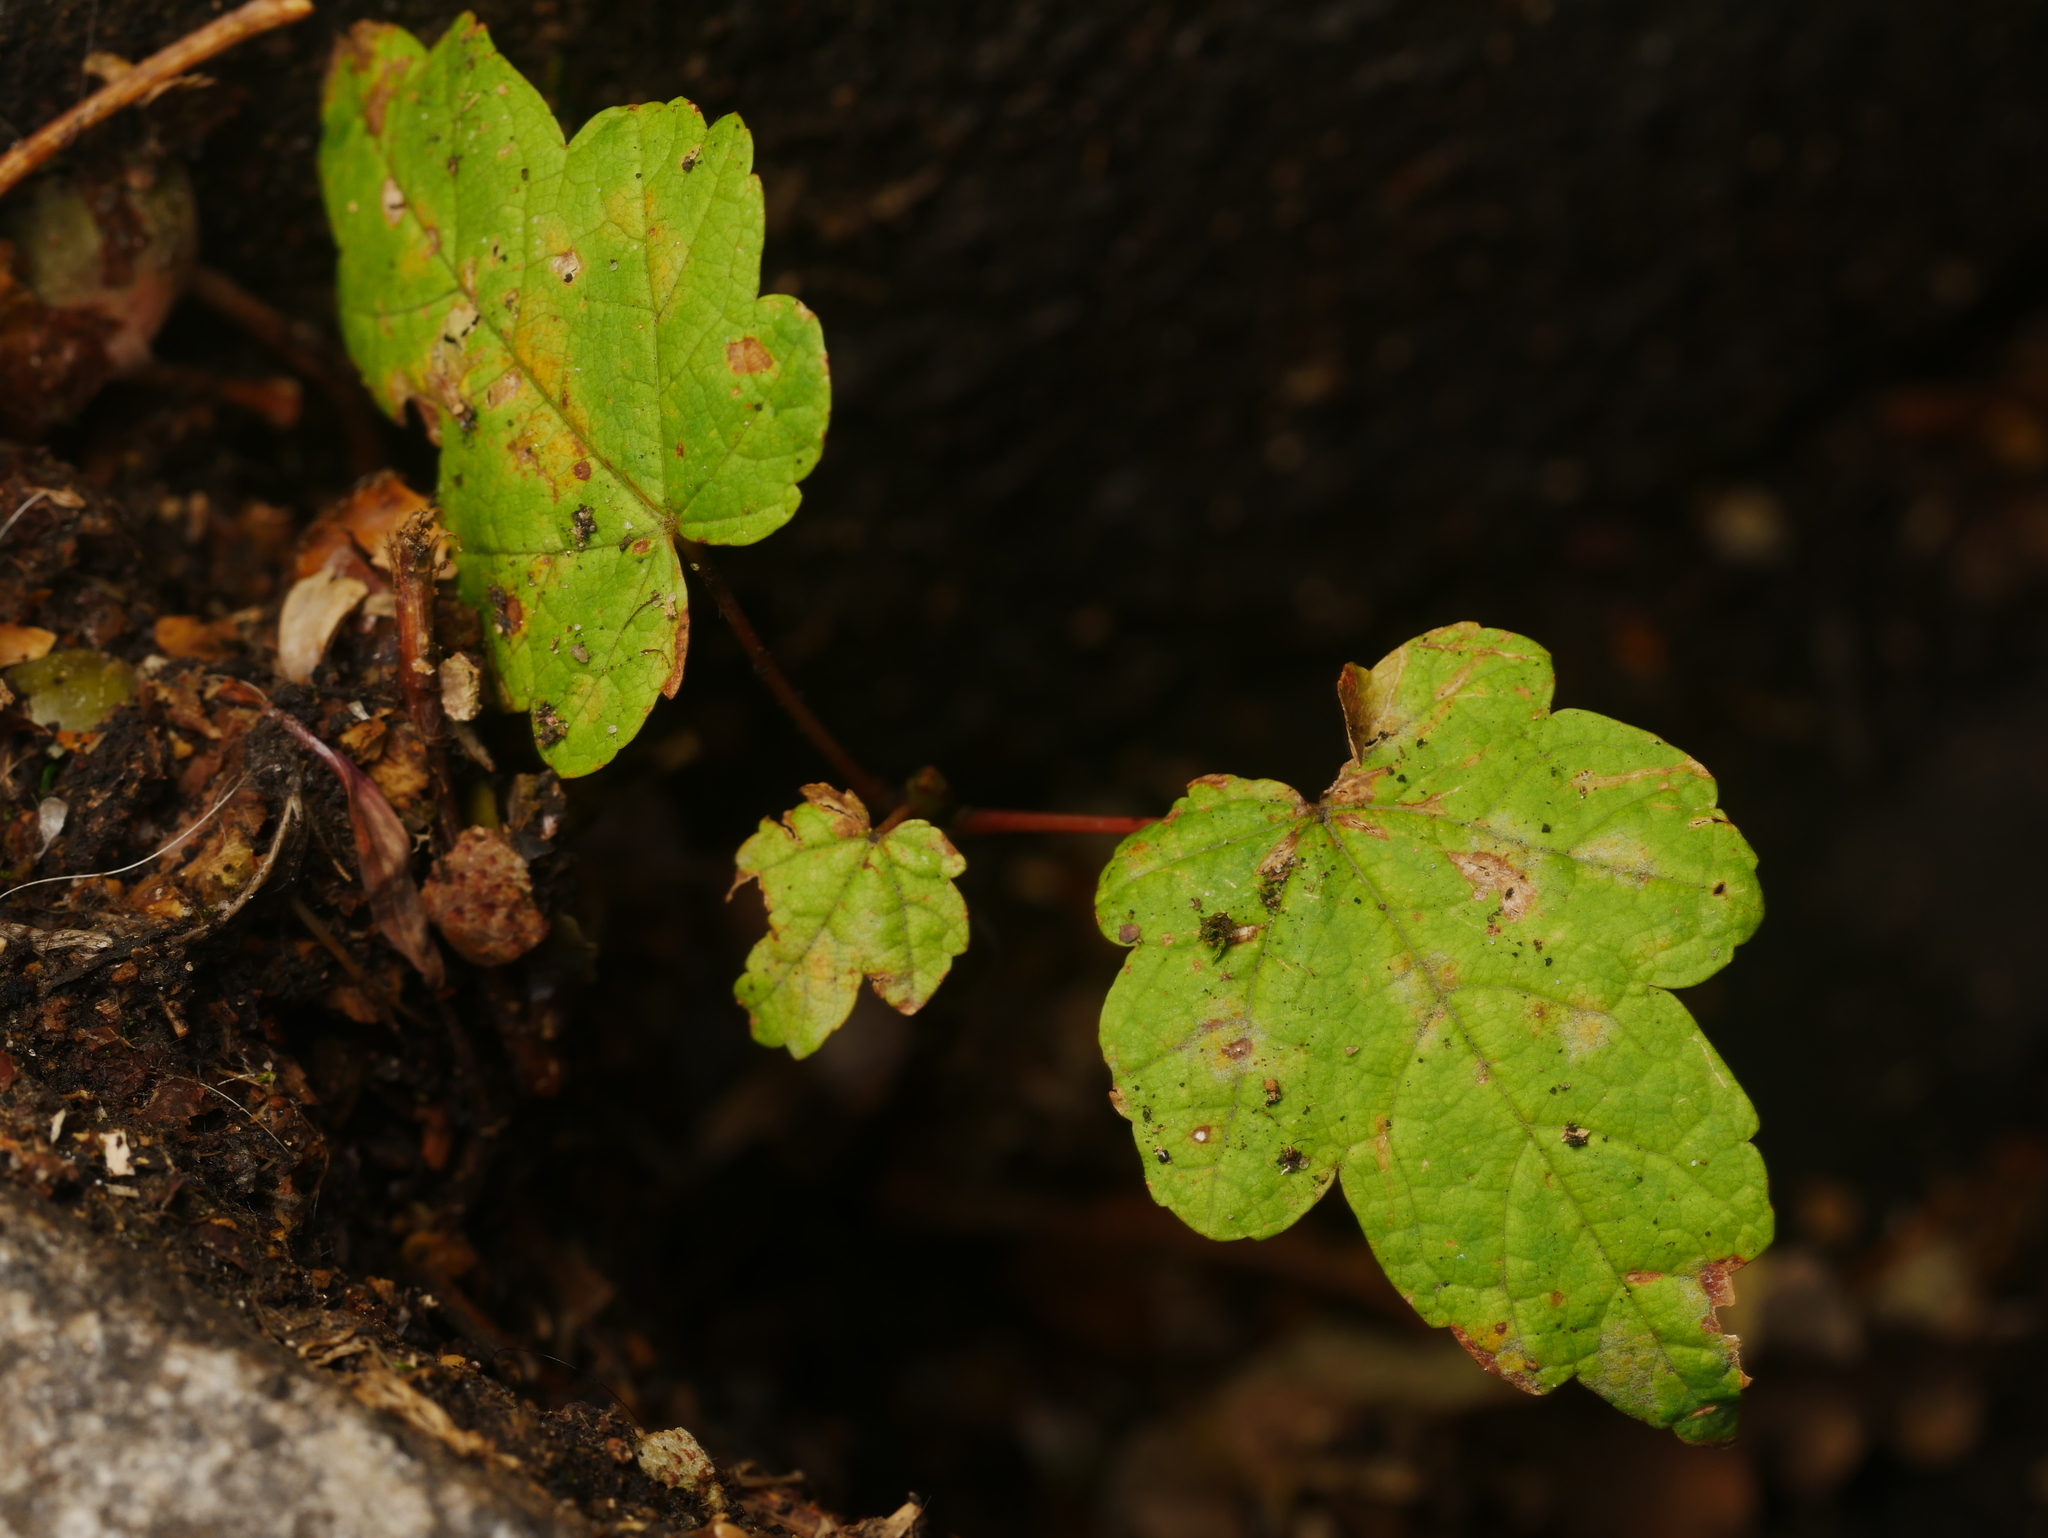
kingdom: Plantae
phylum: Tracheophyta
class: Magnoliopsida
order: Sapindales
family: Sapindaceae
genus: Acer
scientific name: Acer pseudoplatanus
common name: Sycamore
